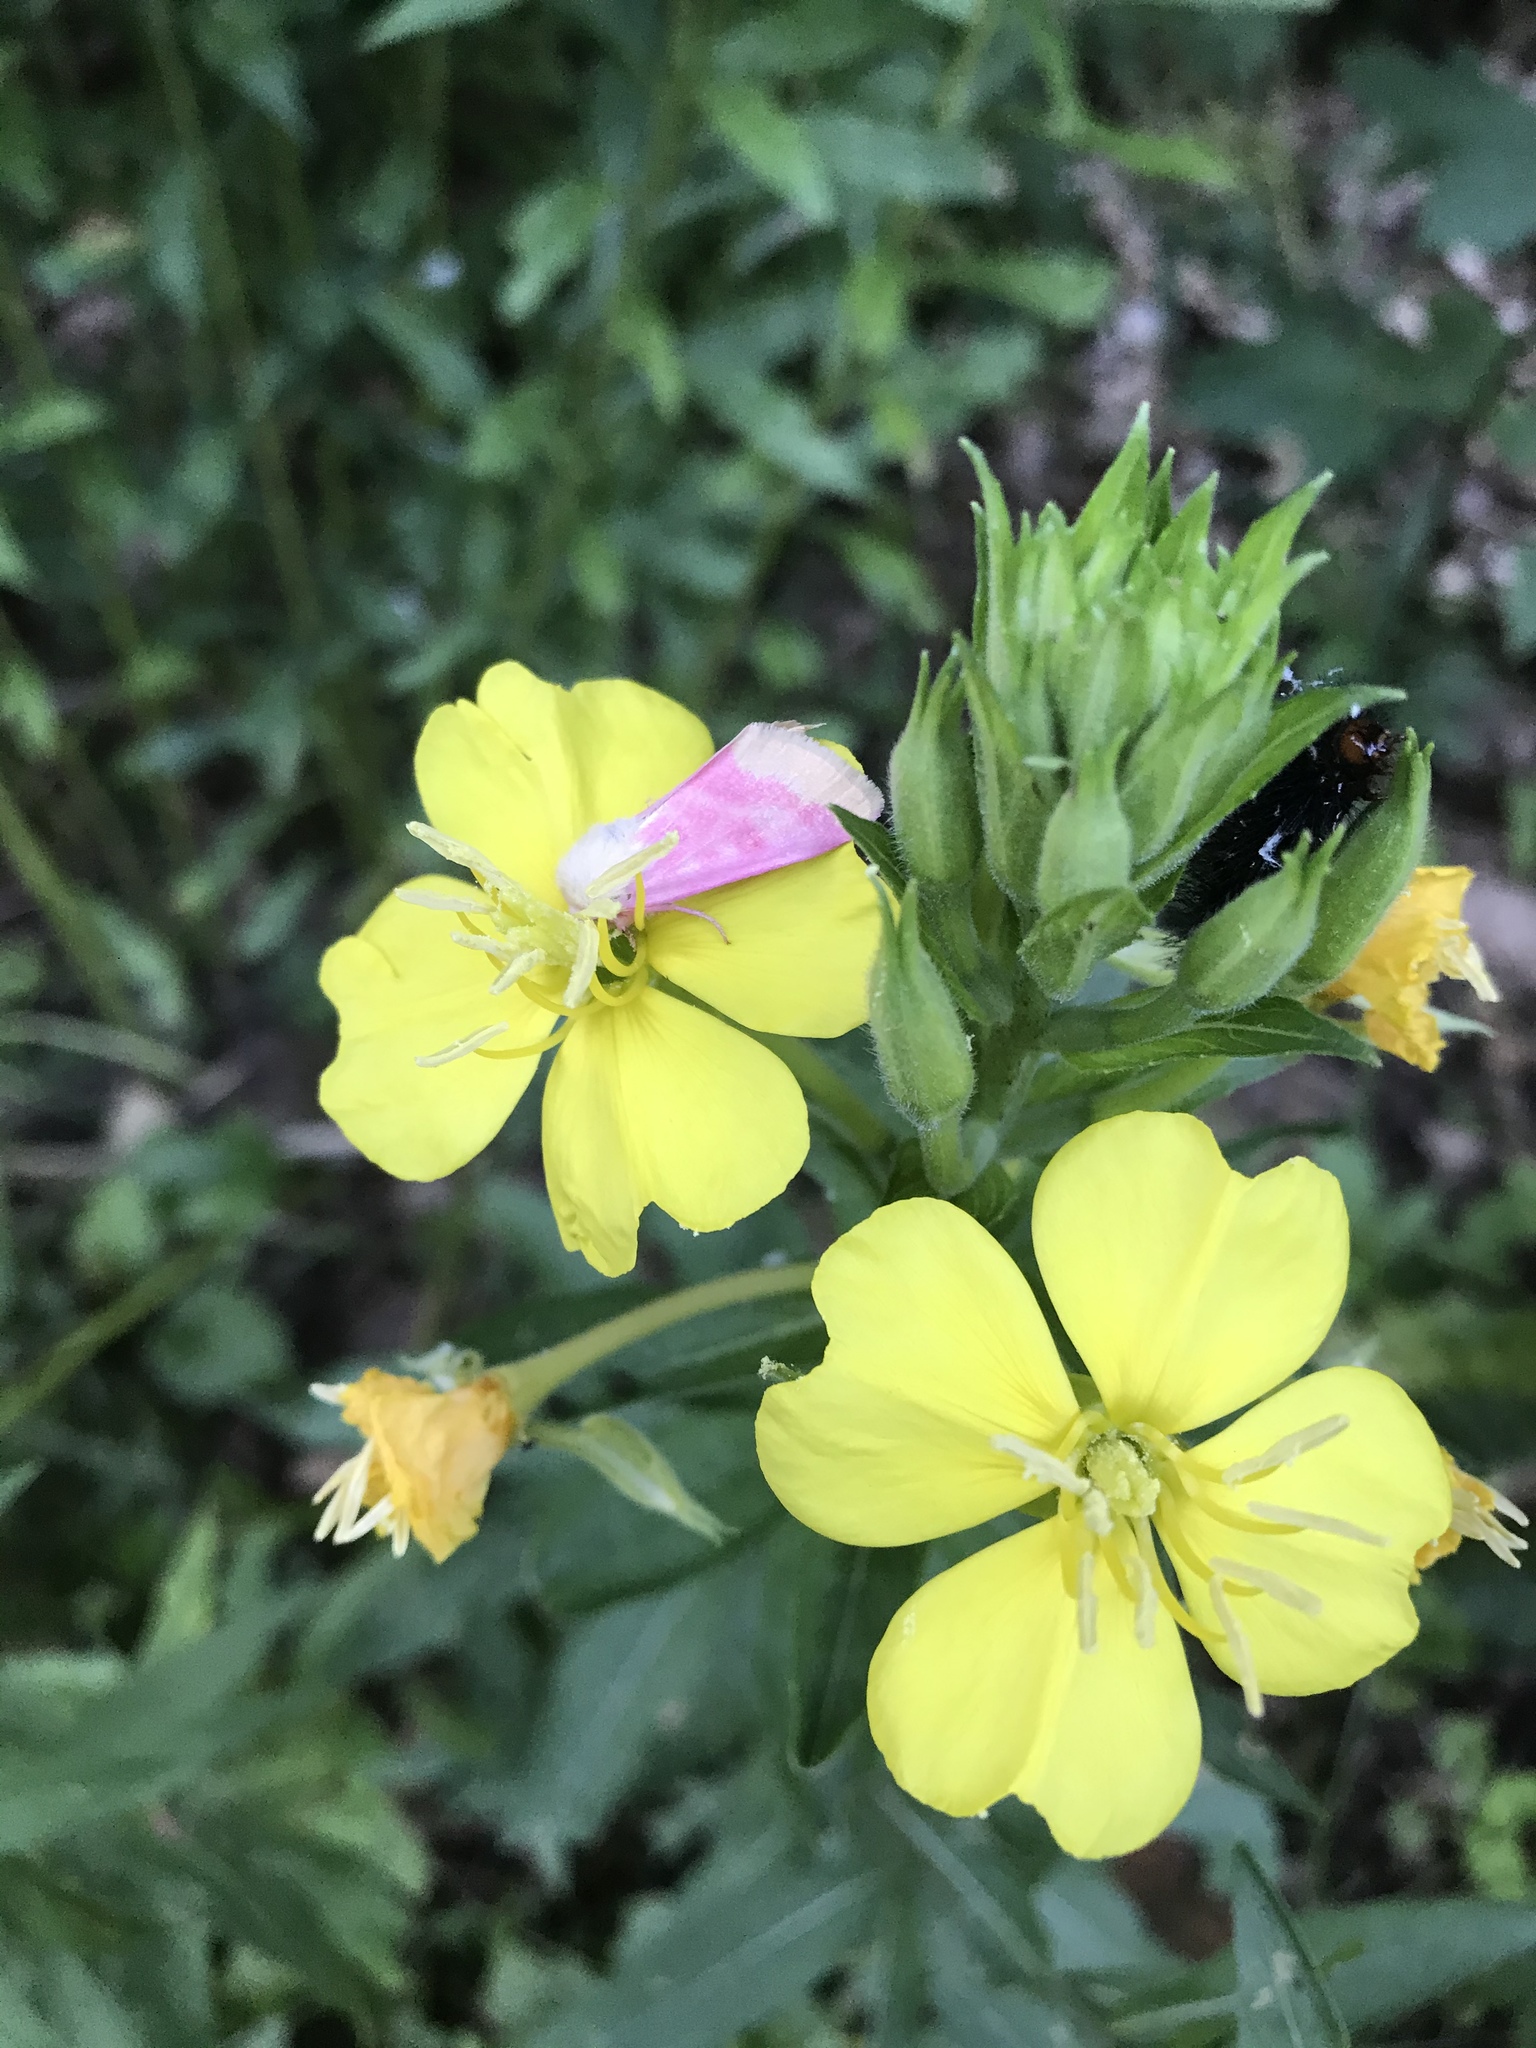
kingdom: Animalia
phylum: Arthropoda
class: Insecta
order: Lepidoptera
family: Noctuidae
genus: Schinia
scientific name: Schinia florida
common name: Primrose moth
